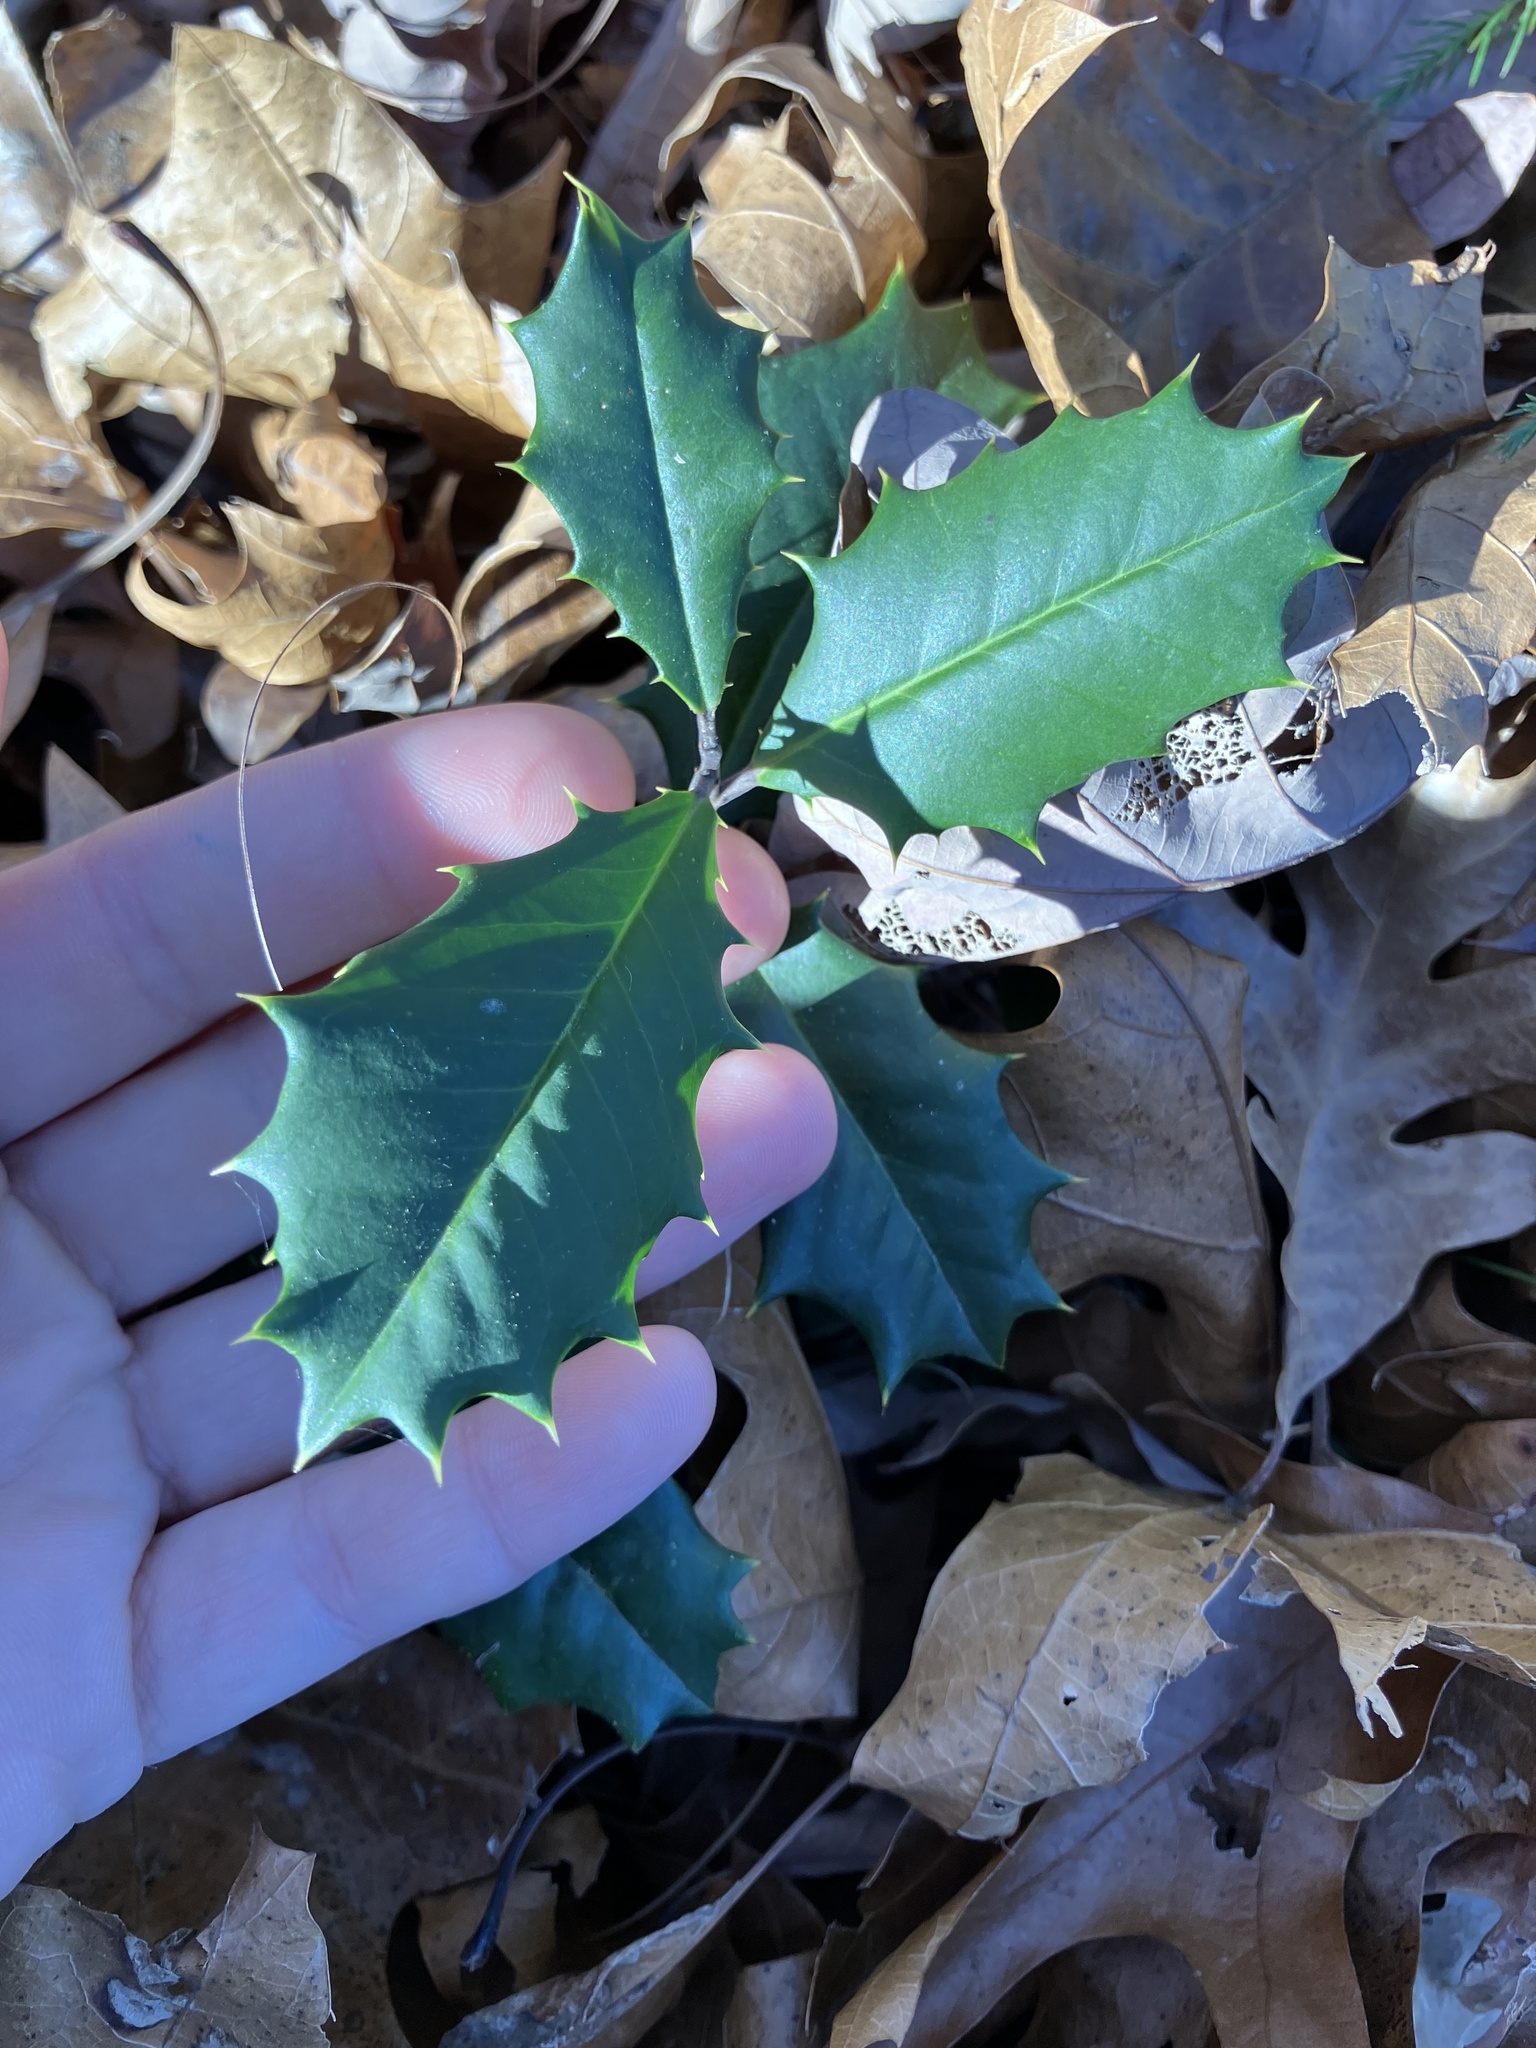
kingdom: Plantae
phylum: Tracheophyta
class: Magnoliopsida
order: Aquifoliales
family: Aquifoliaceae
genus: Ilex
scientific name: Ilex opaca
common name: American holly
